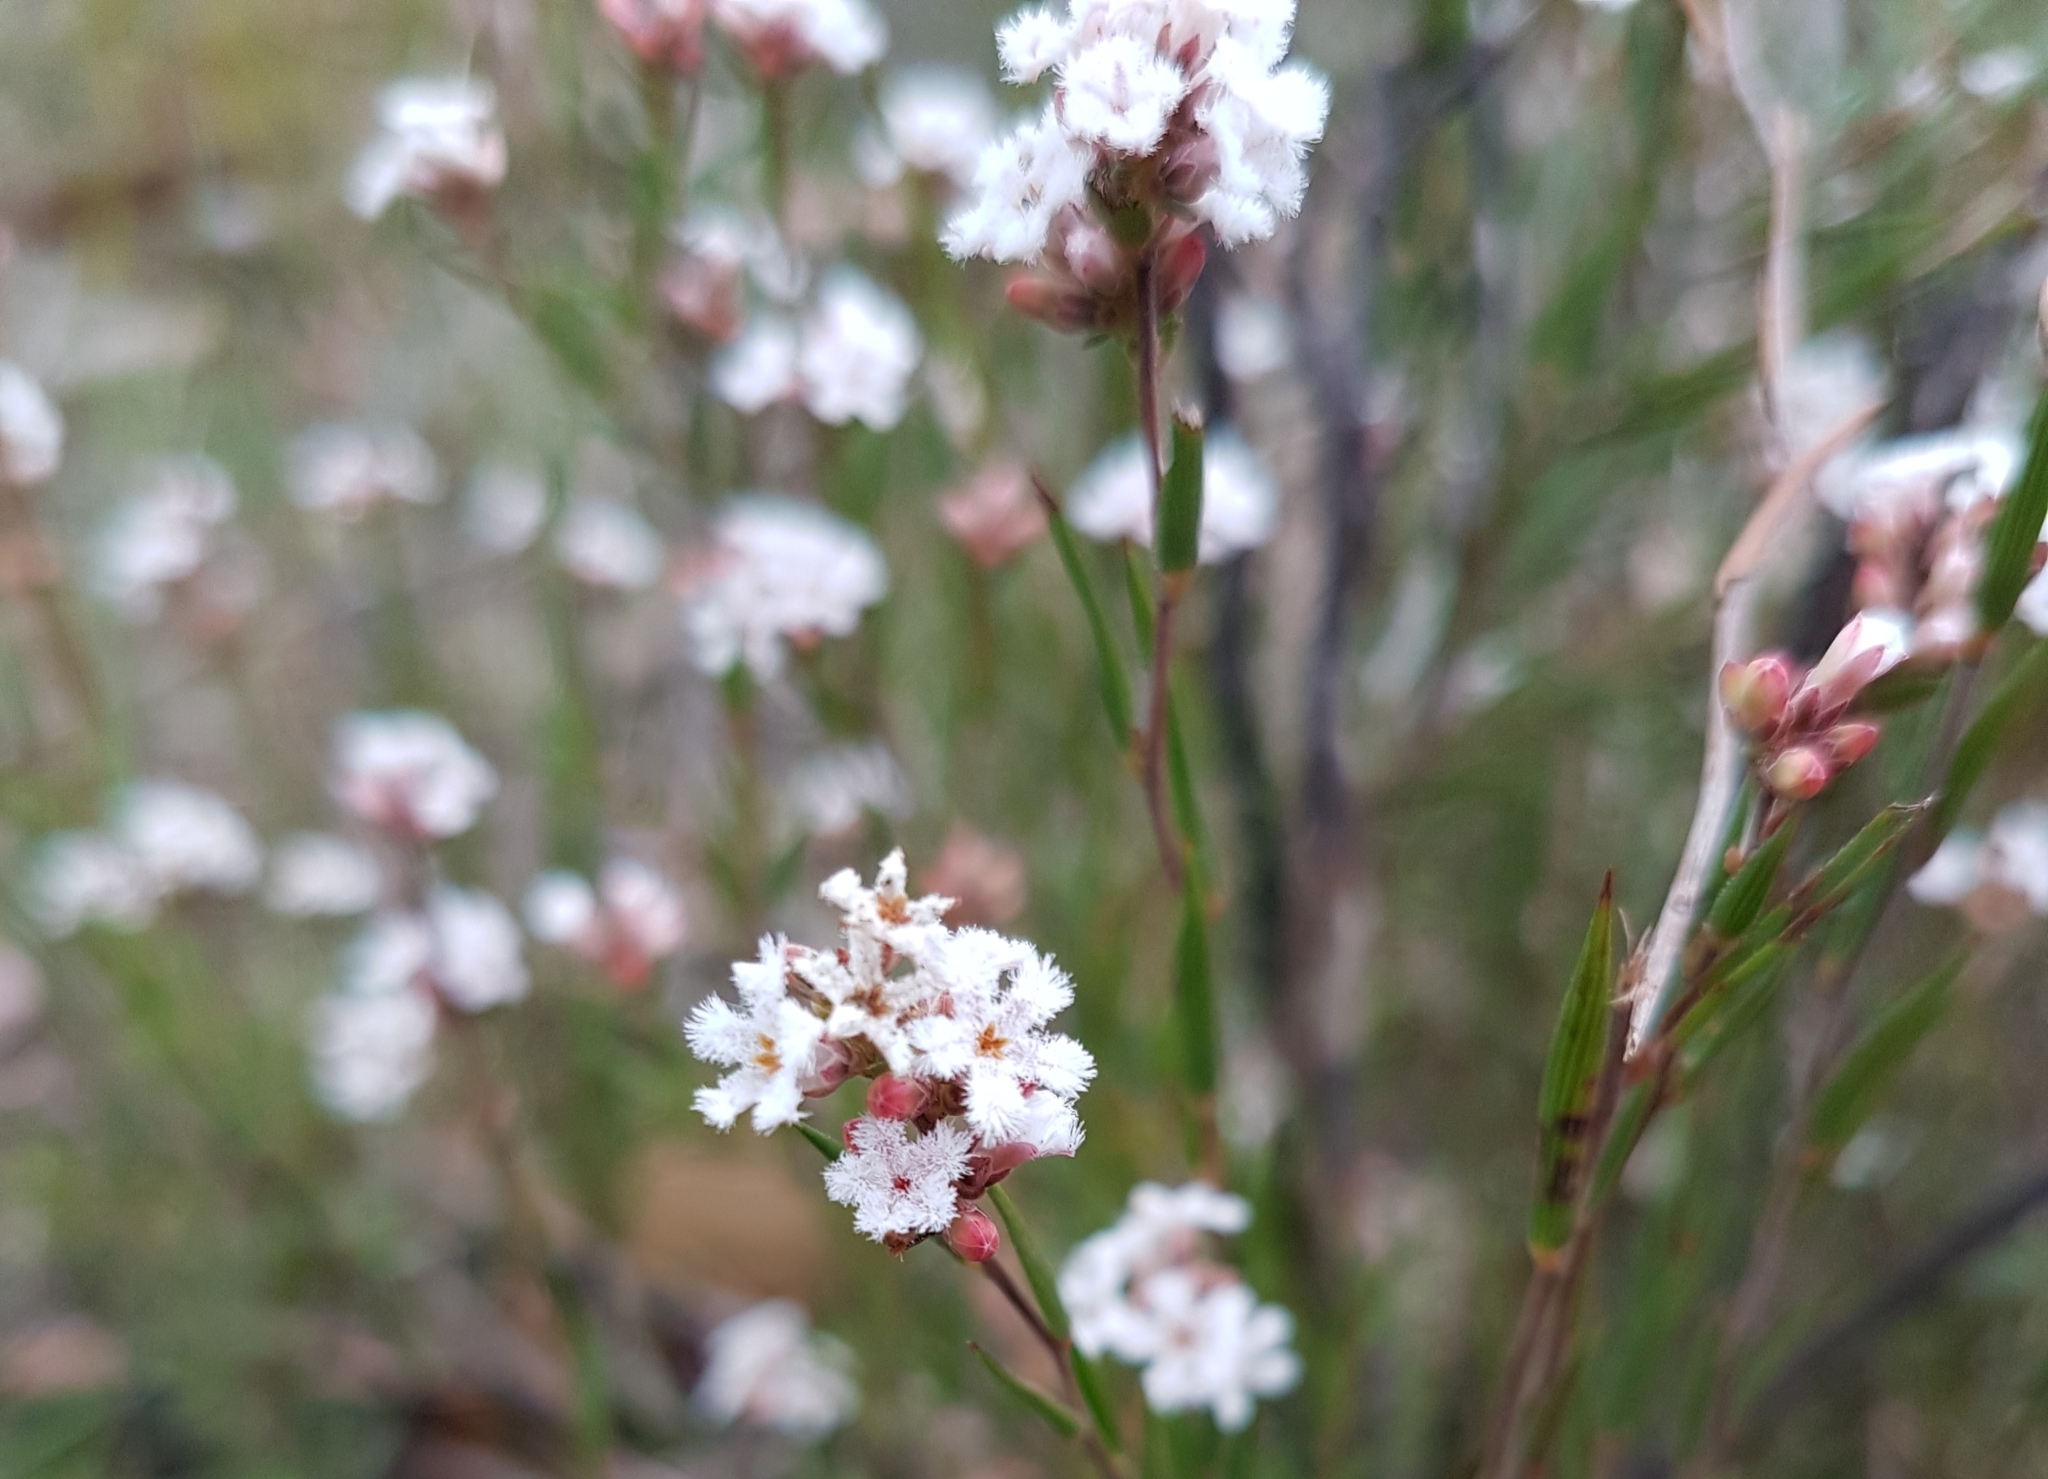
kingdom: Plantae
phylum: Tracheophyta
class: Magnoliopsida
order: Ericales
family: Ericaceae
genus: Leucopogon
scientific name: Leucopogon virgatus
